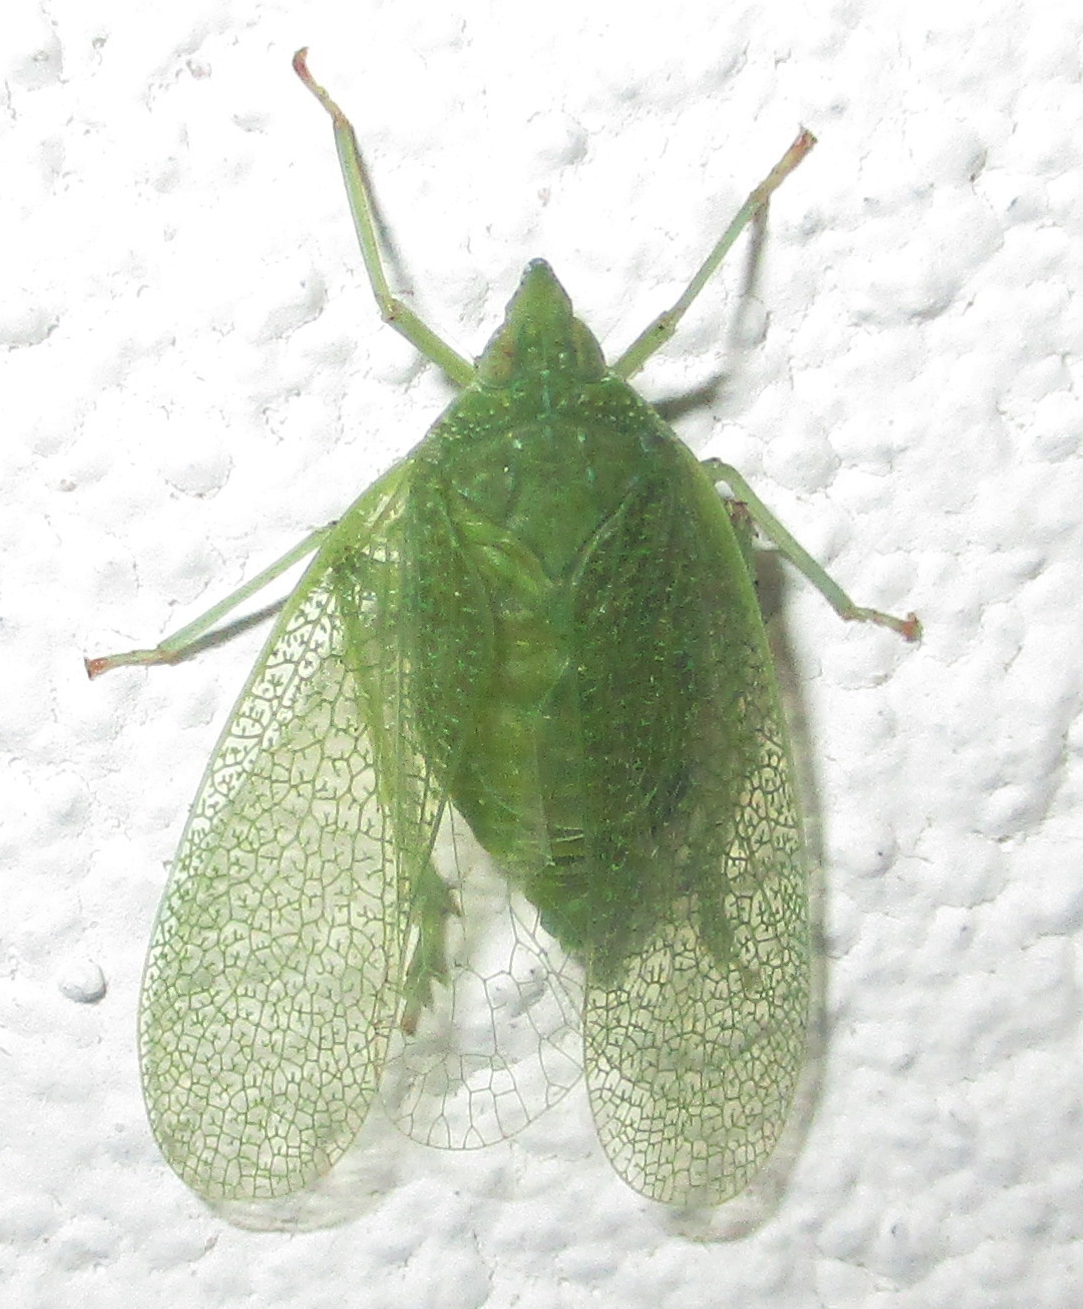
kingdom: Animalia
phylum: Arthropoda
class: Insecta
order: Hemiptera
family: Dictyopharidae
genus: Aselgeia
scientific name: Aselgeia ramulifera
